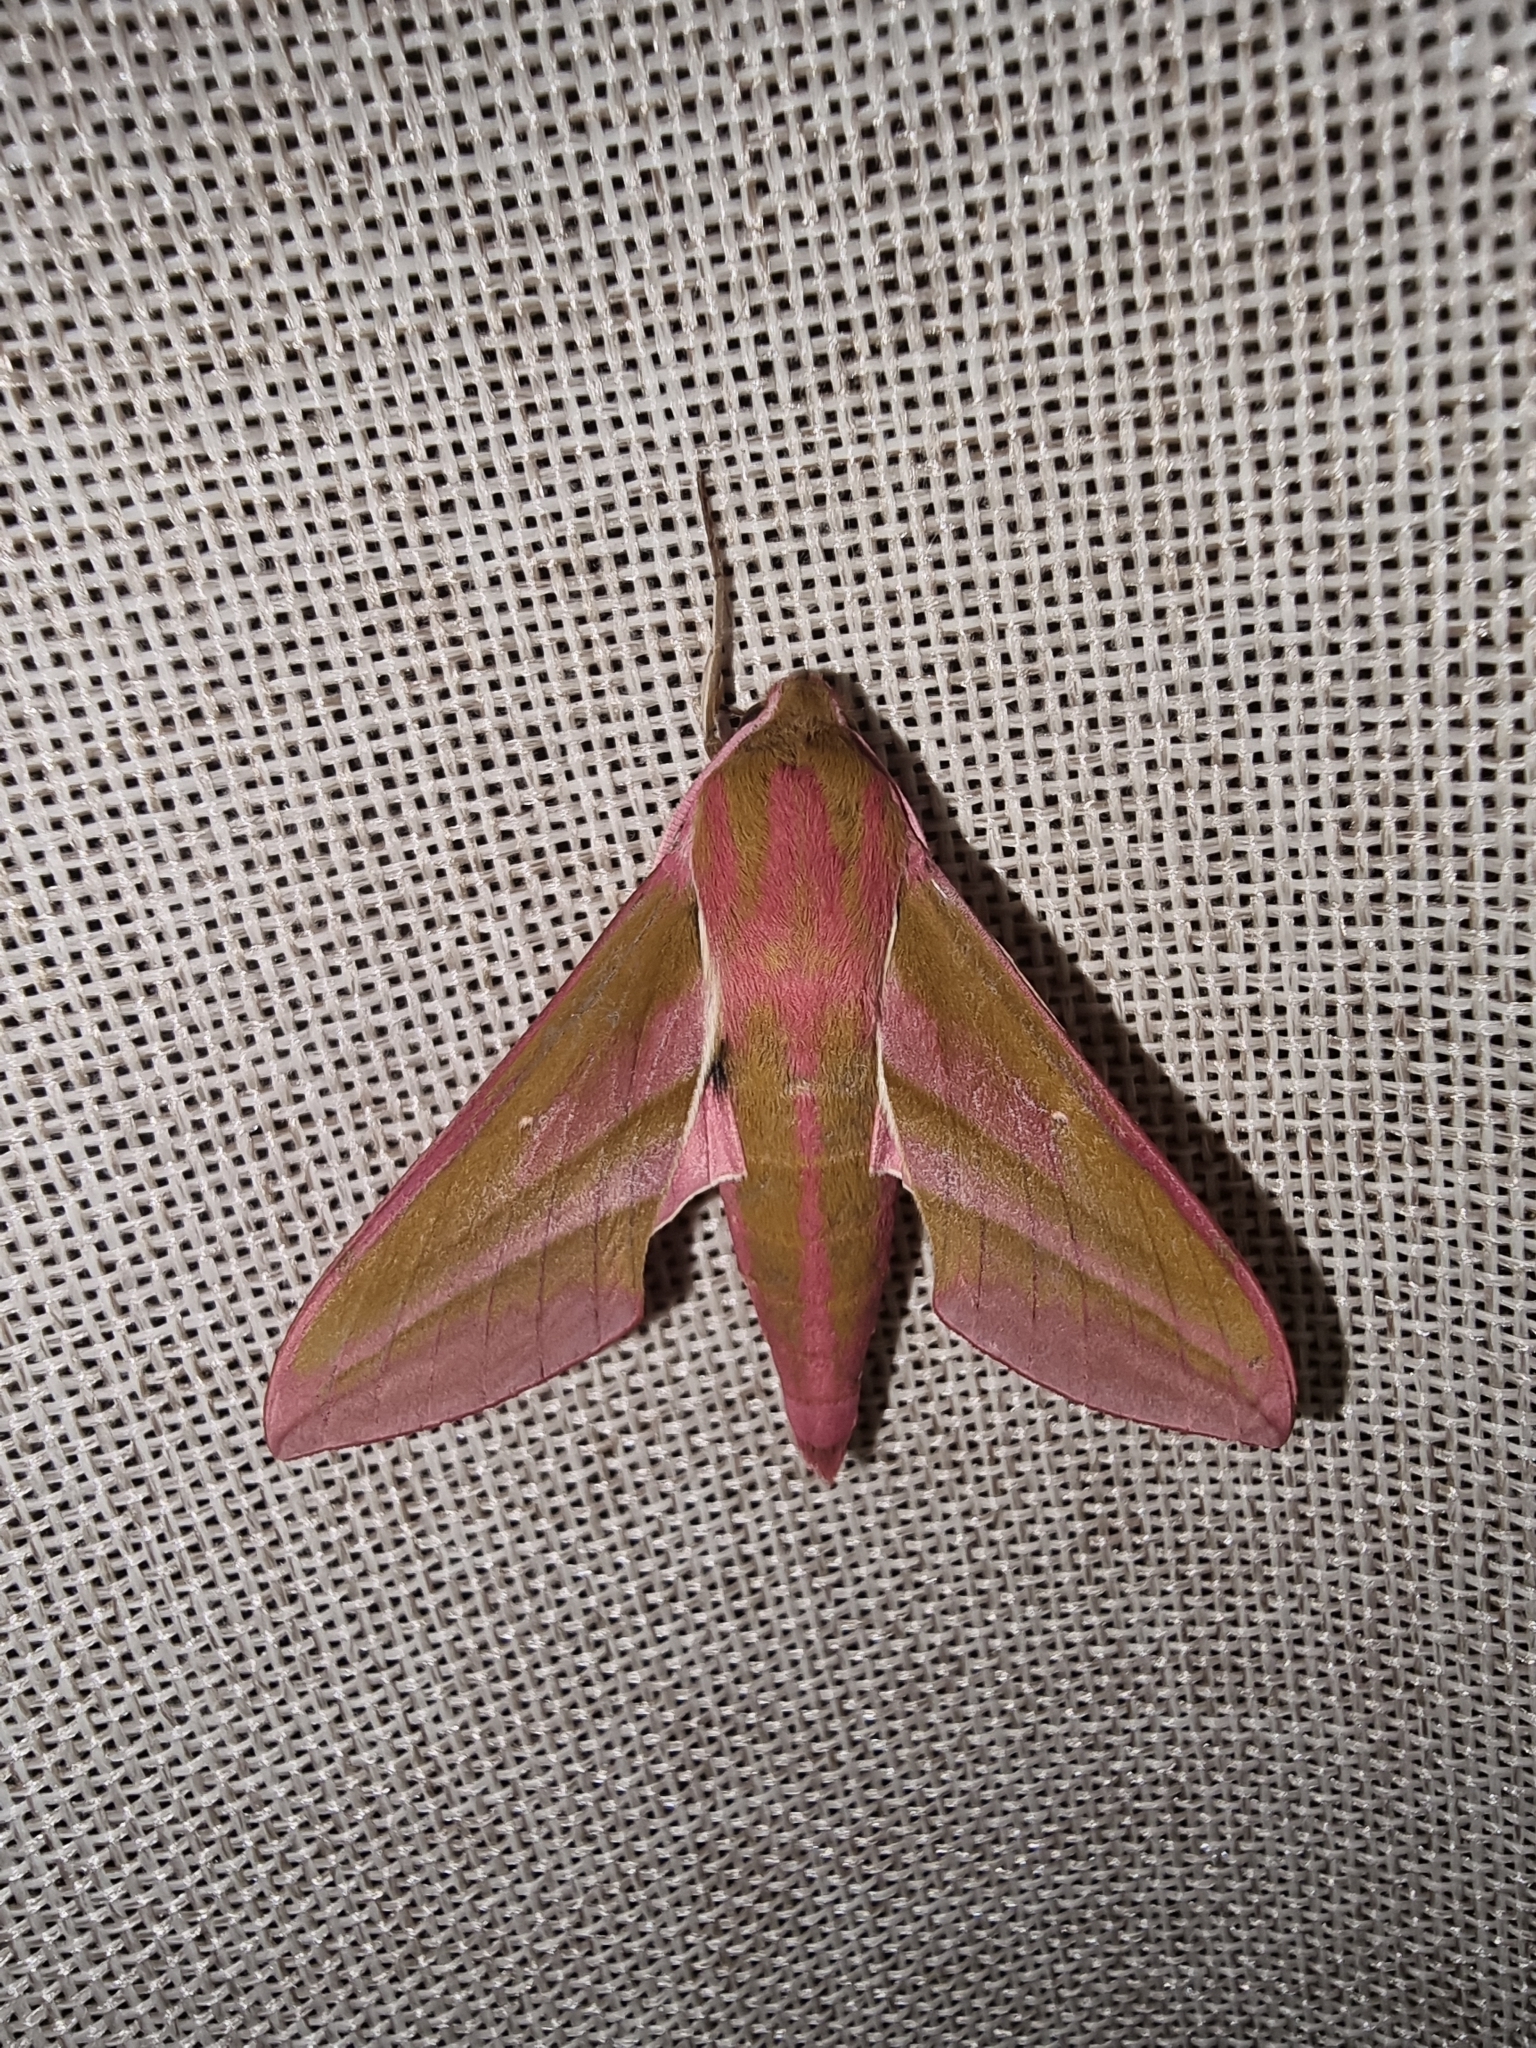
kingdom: Animalia
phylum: Arthropoda
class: Insecta
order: Lepidoptera
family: Sphingidae
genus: Deilephila
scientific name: Deilephila elpenor
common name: Elephant hawk-moth
